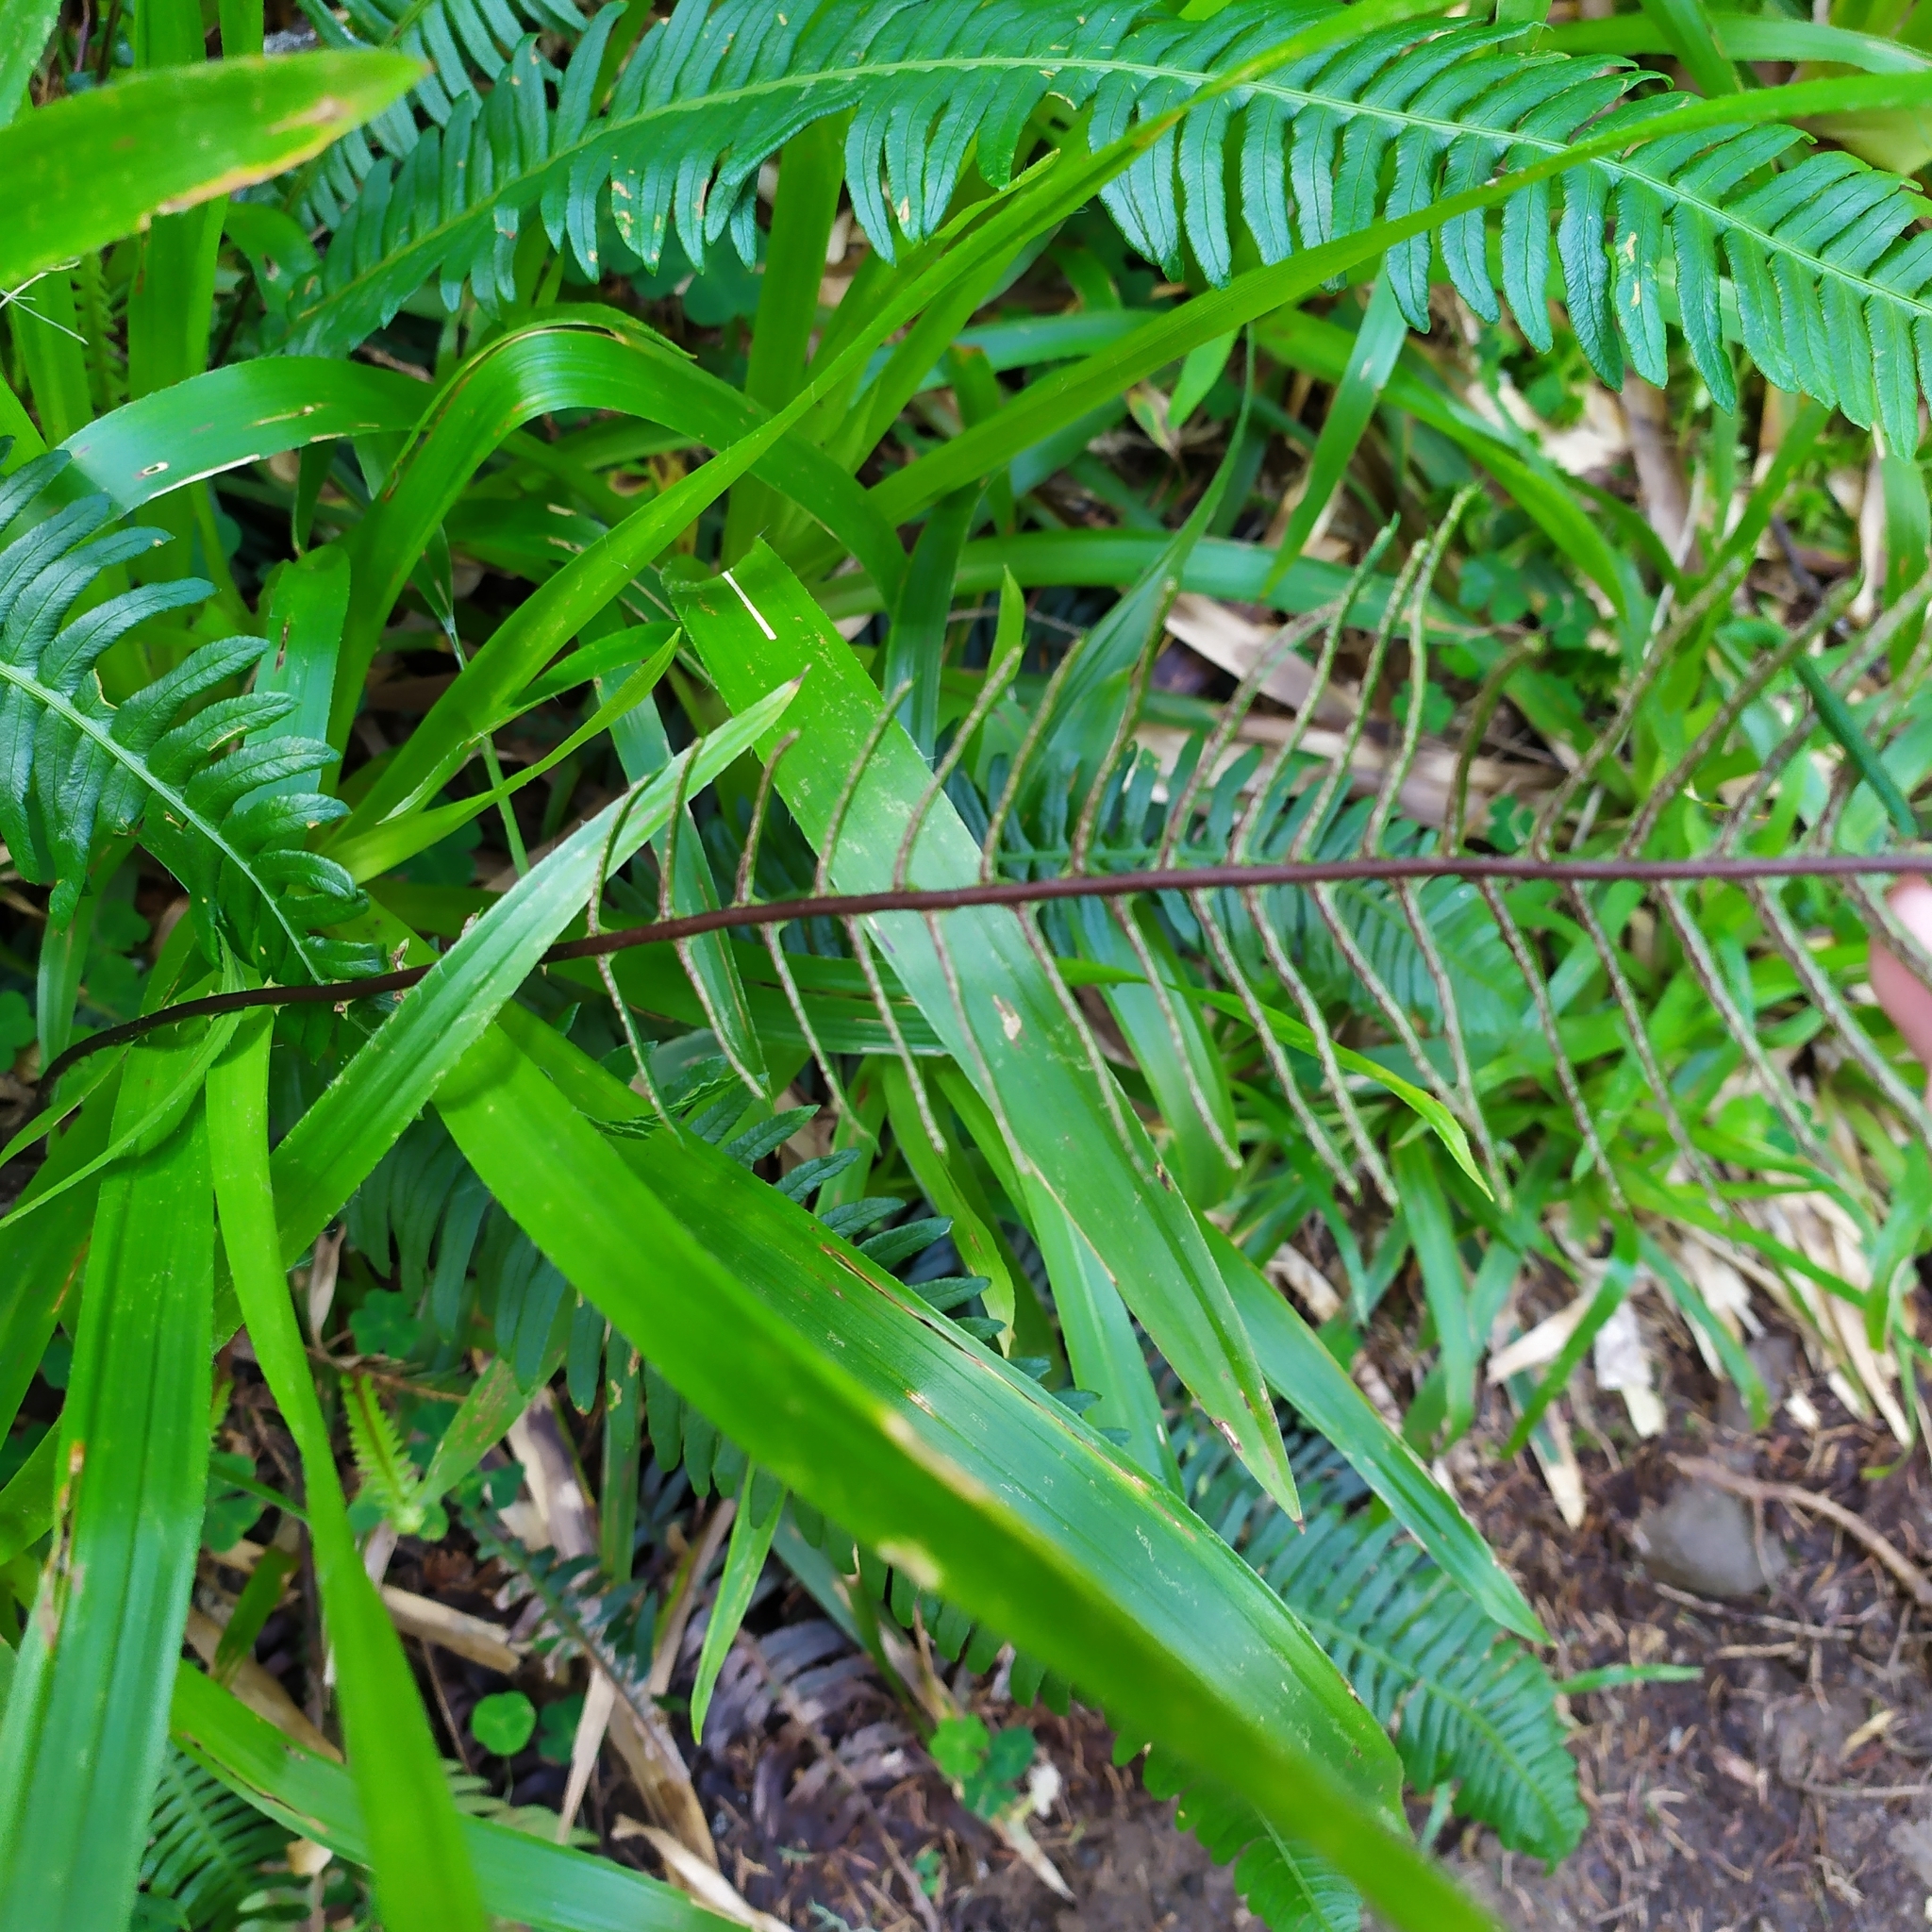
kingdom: Plantae
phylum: Tracheophyta
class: Polypodiopsida
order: Polypodiales
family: Blechnaceae
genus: Struthiopteris
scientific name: Struthiopteris spicant
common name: Deer fern
